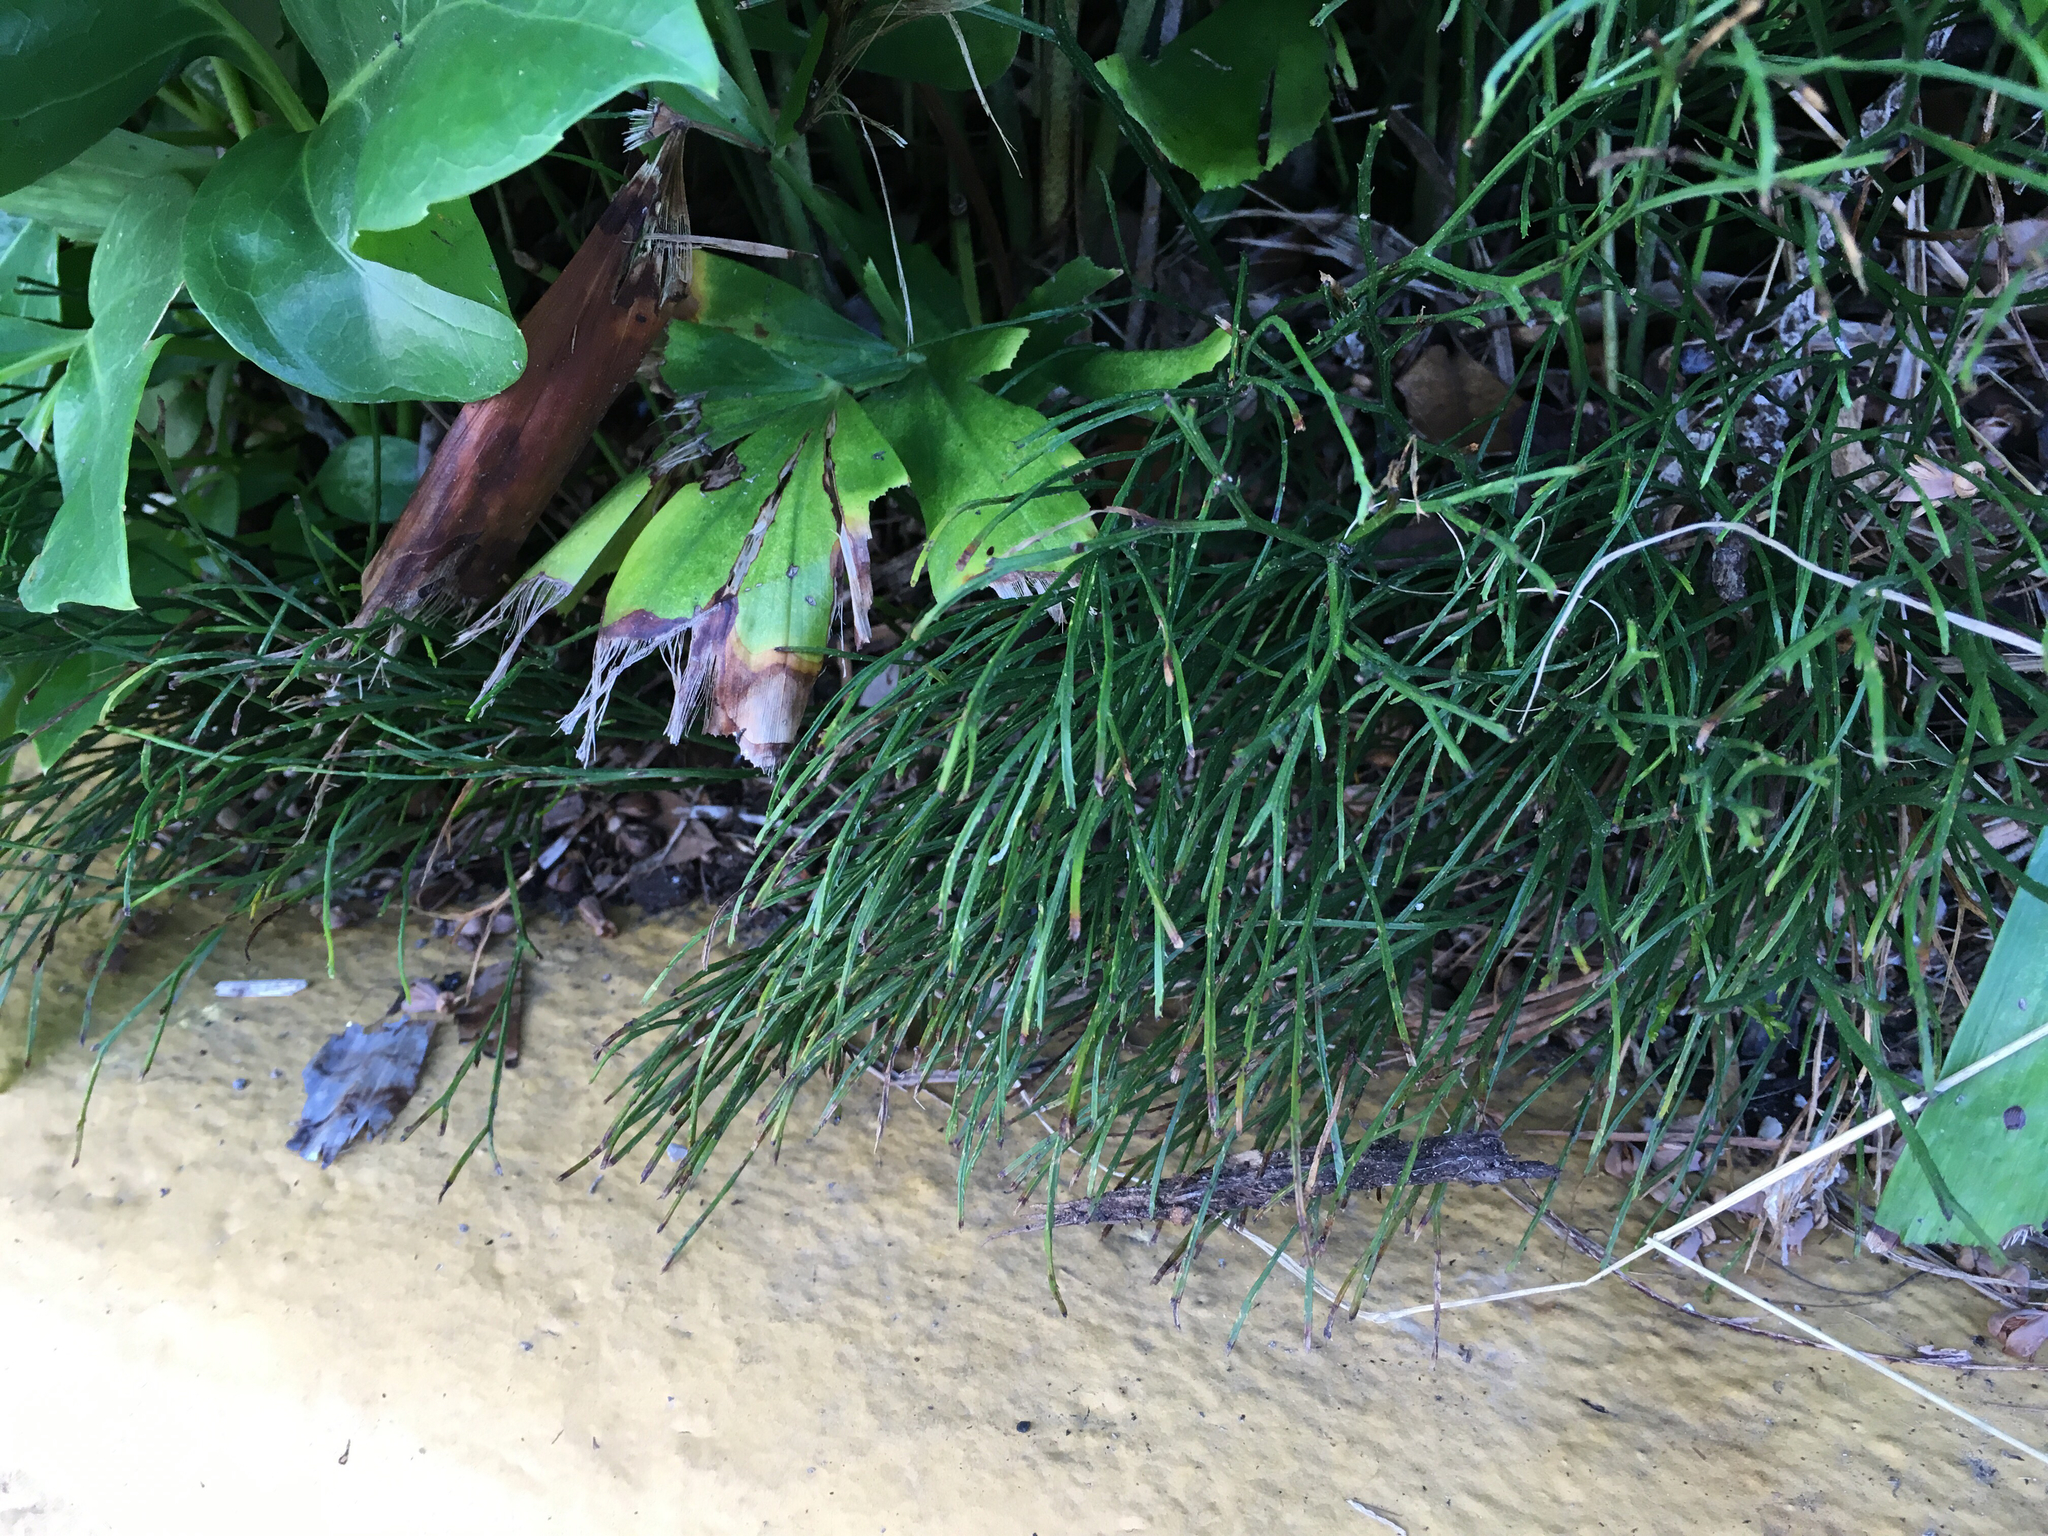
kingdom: Plantae
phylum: Tracheophyta
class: Polypodiopsida
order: Psilotales
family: Psilotaceae
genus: Psilotum
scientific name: Psilotum nudum
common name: Skeleton fork fern
